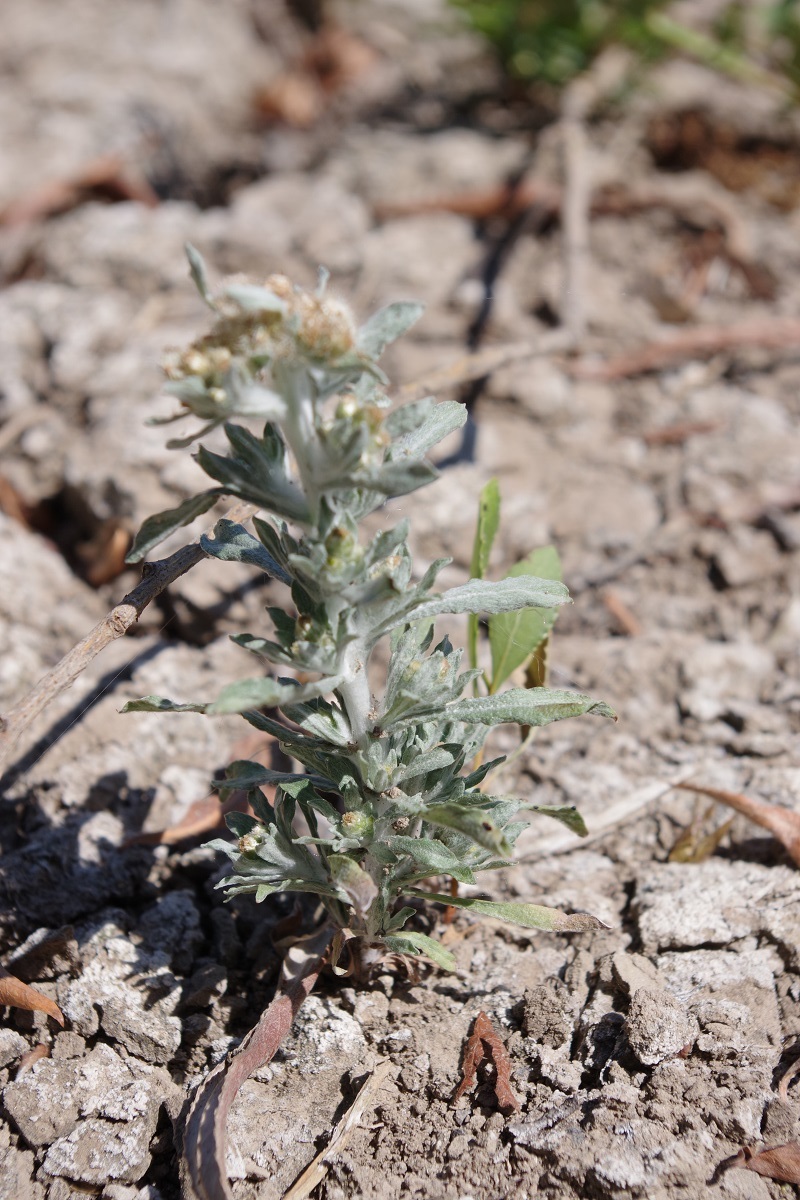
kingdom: Plantae
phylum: Tracheophyta
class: Magnoliopsida
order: Asterales
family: Asteraceae
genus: Gnaphalium
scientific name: Gnaphalium uliginosum
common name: Marsh cudweed
